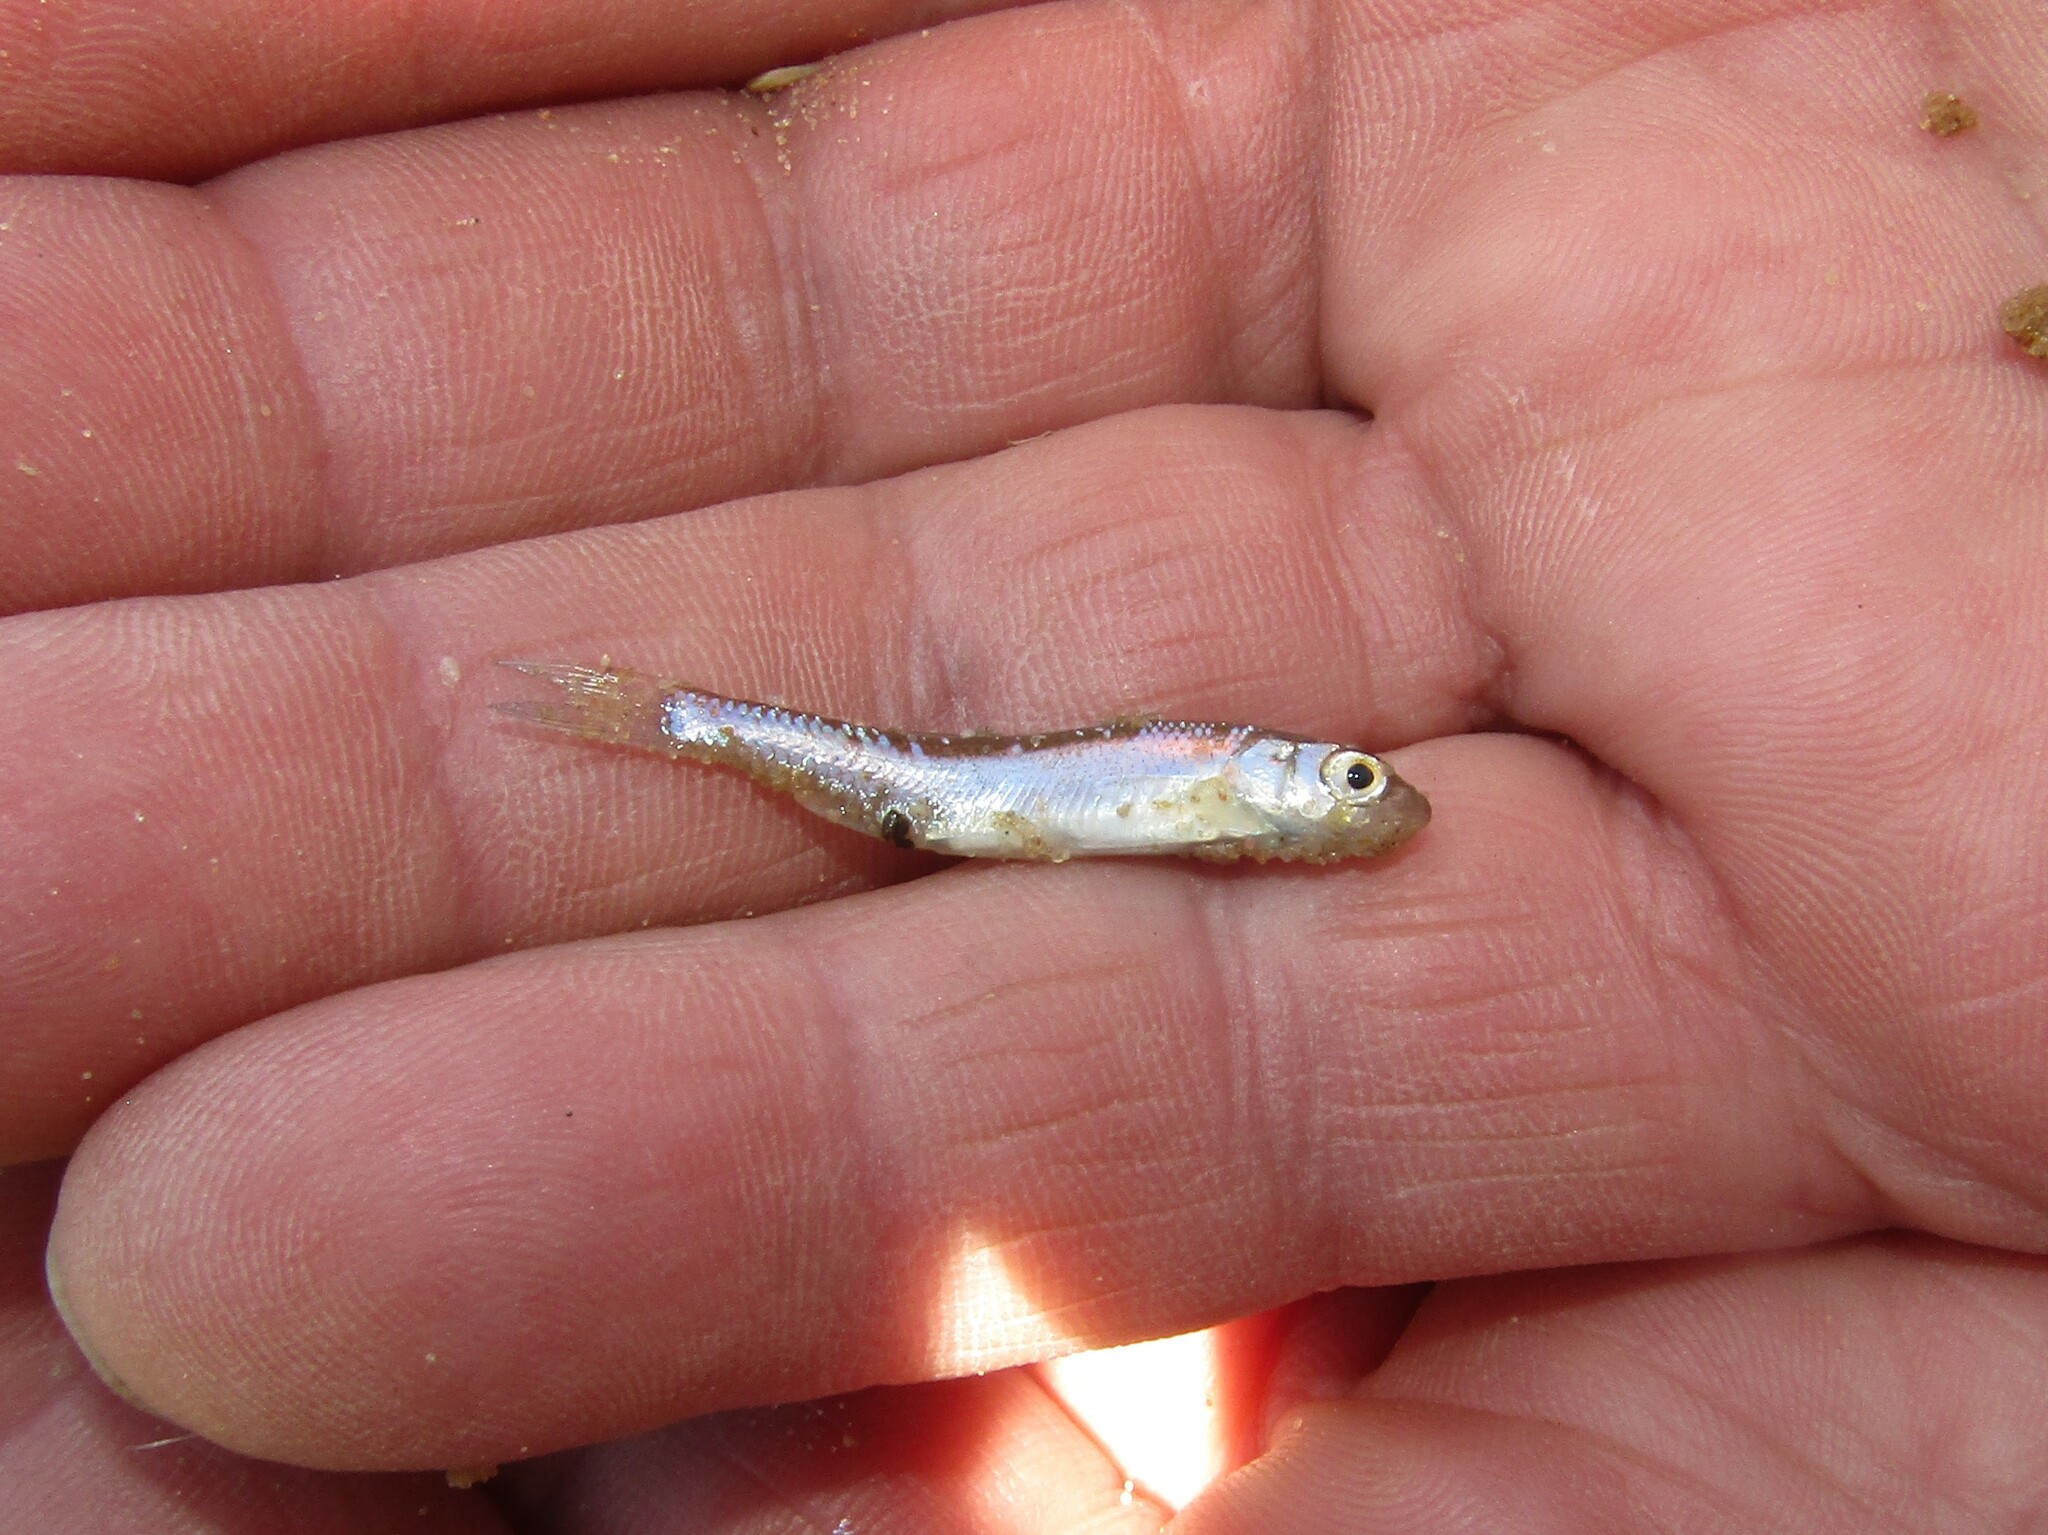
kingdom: Animalia
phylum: Chordata
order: Cypriniformes
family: Cyprinidae
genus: Rutilus
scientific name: Rutilus rutilus
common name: Roach
